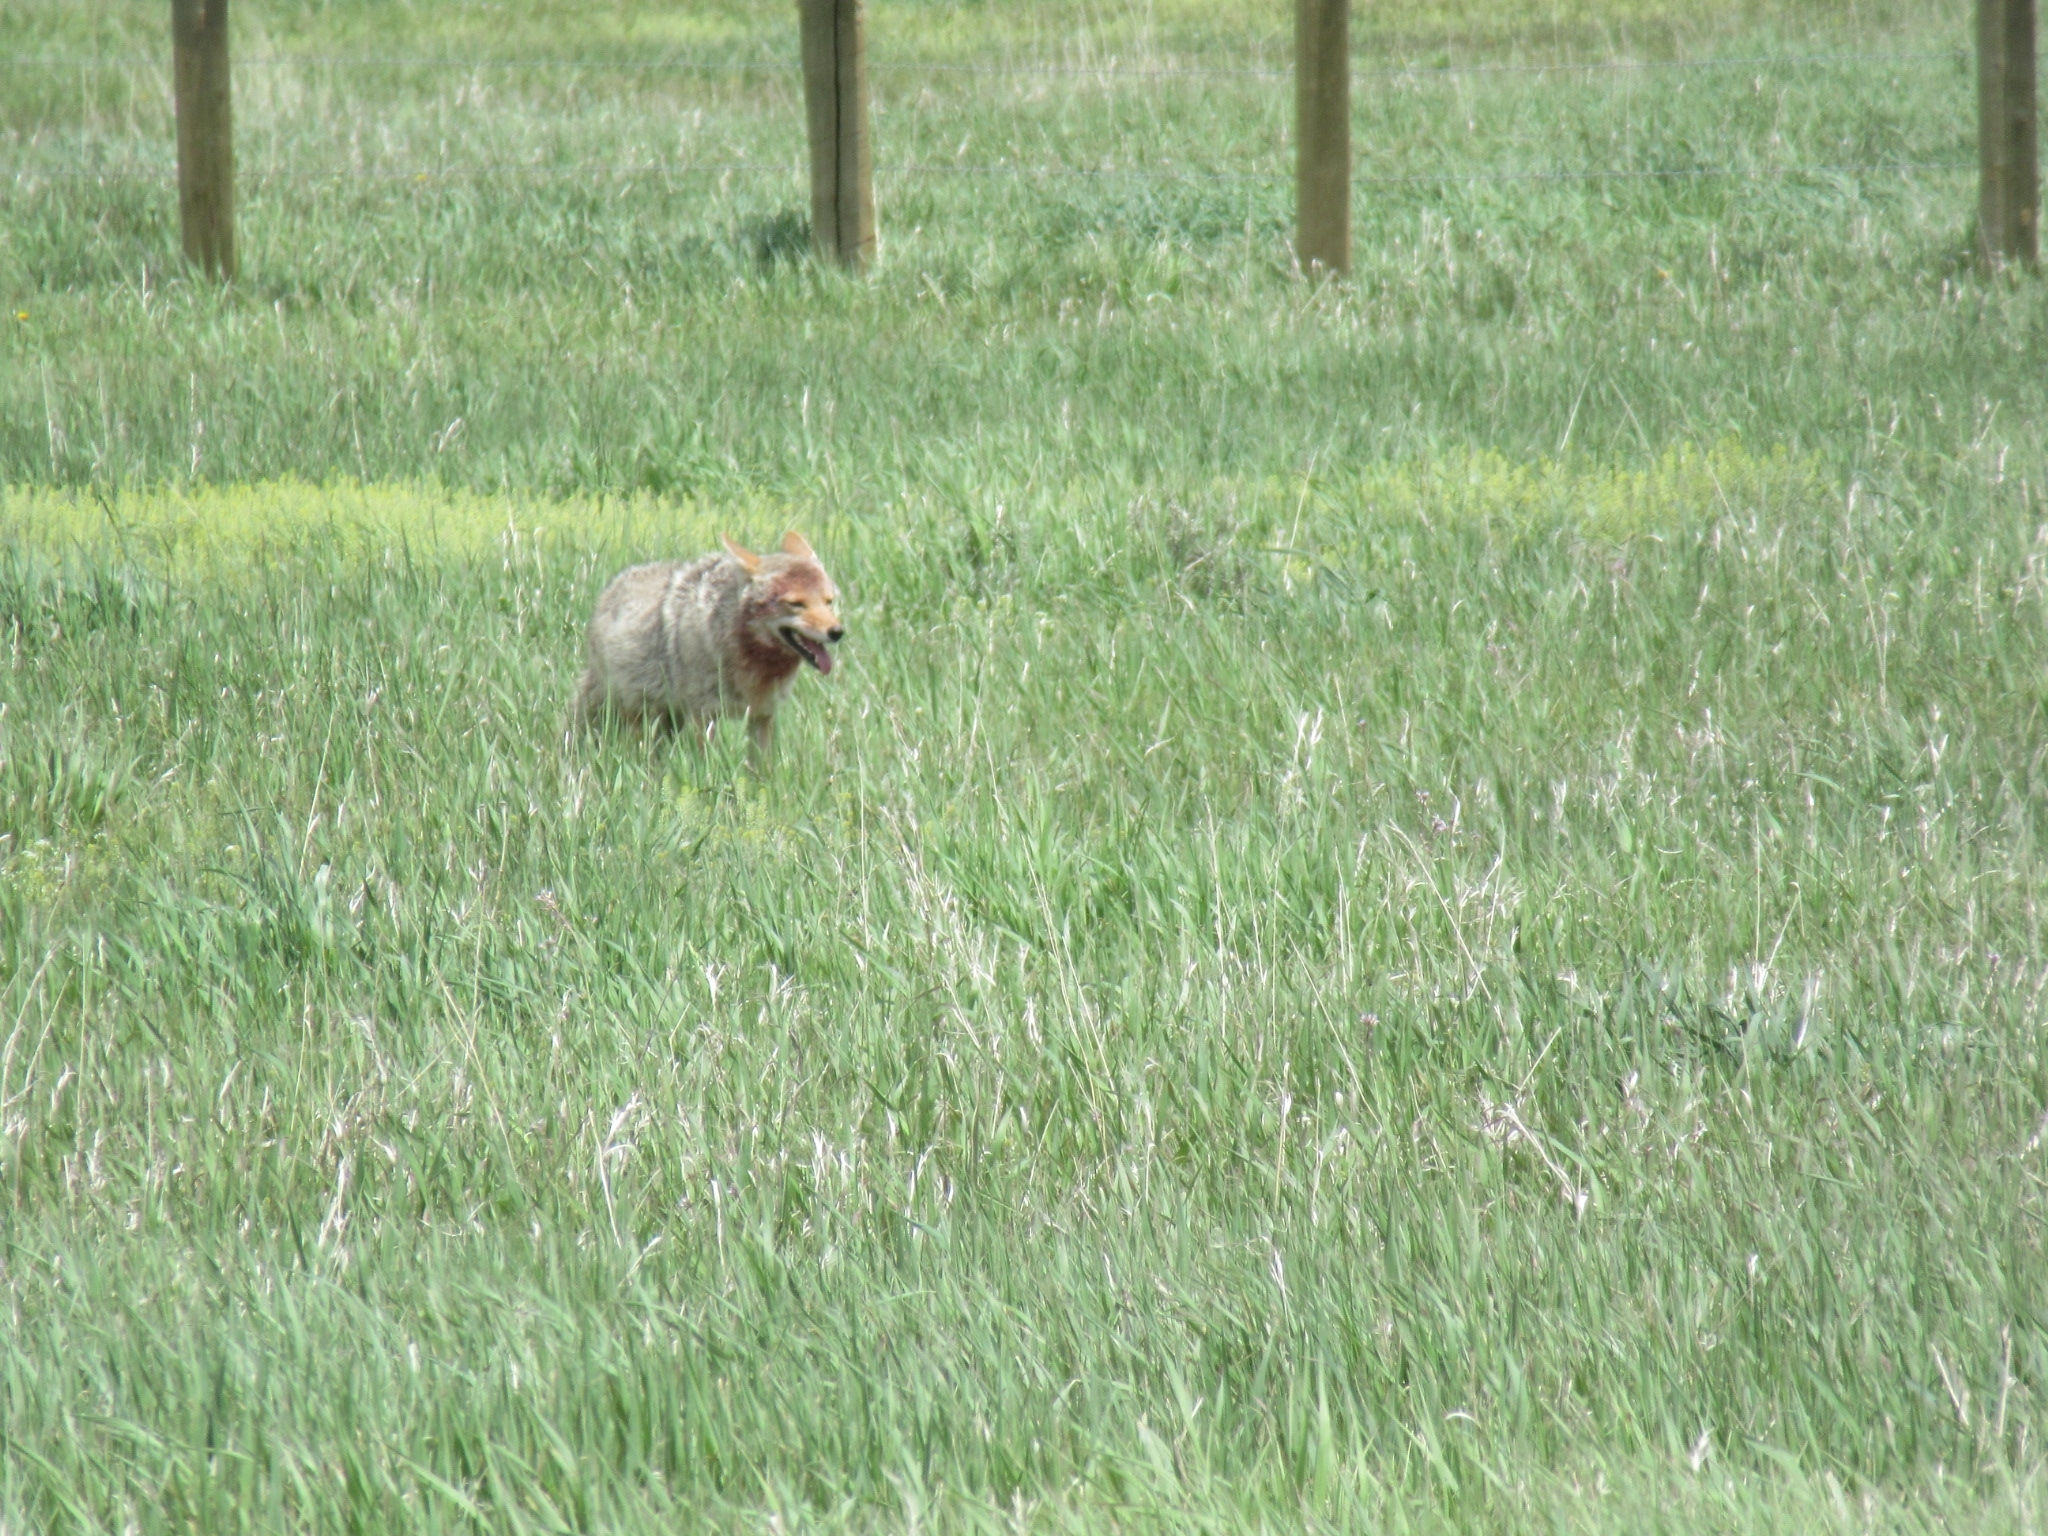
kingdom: Animalia
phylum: Chordata
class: Mammalia
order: Carnivora
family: Canidae
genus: Canis
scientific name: Canis latrans
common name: Coyote
